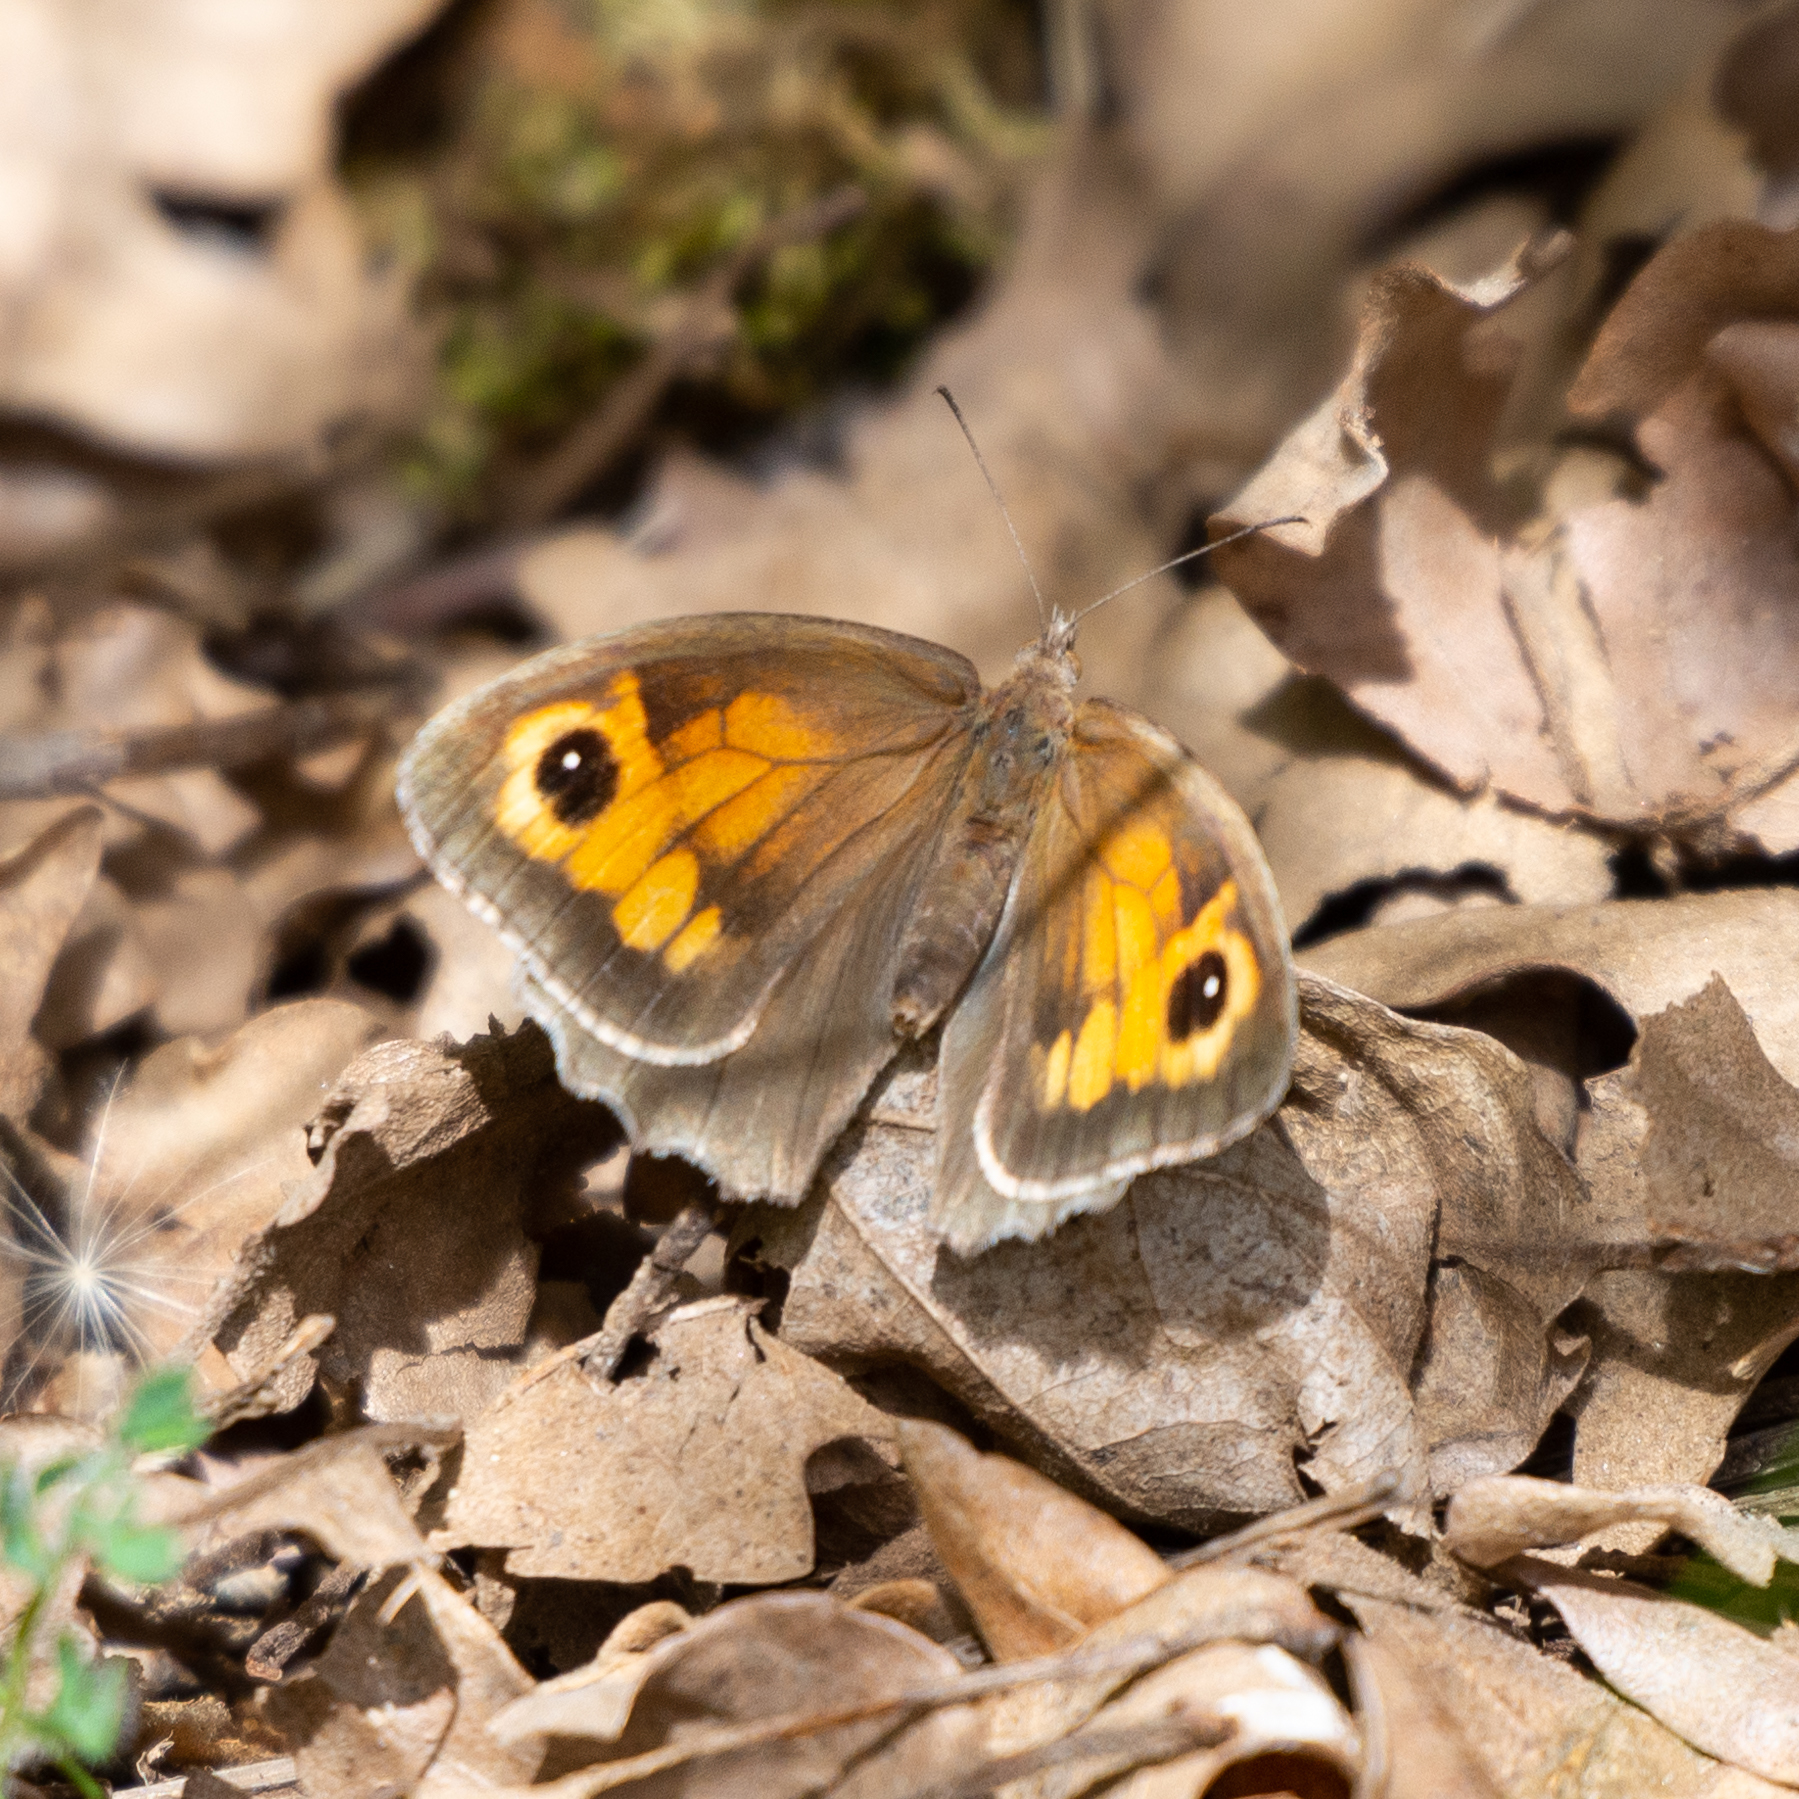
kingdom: Animalia
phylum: Arthropoda
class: Insecta
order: Lepidoptera
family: Nymphalidae
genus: Maniola
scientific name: Maniola jurtina
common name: Meadow brown
